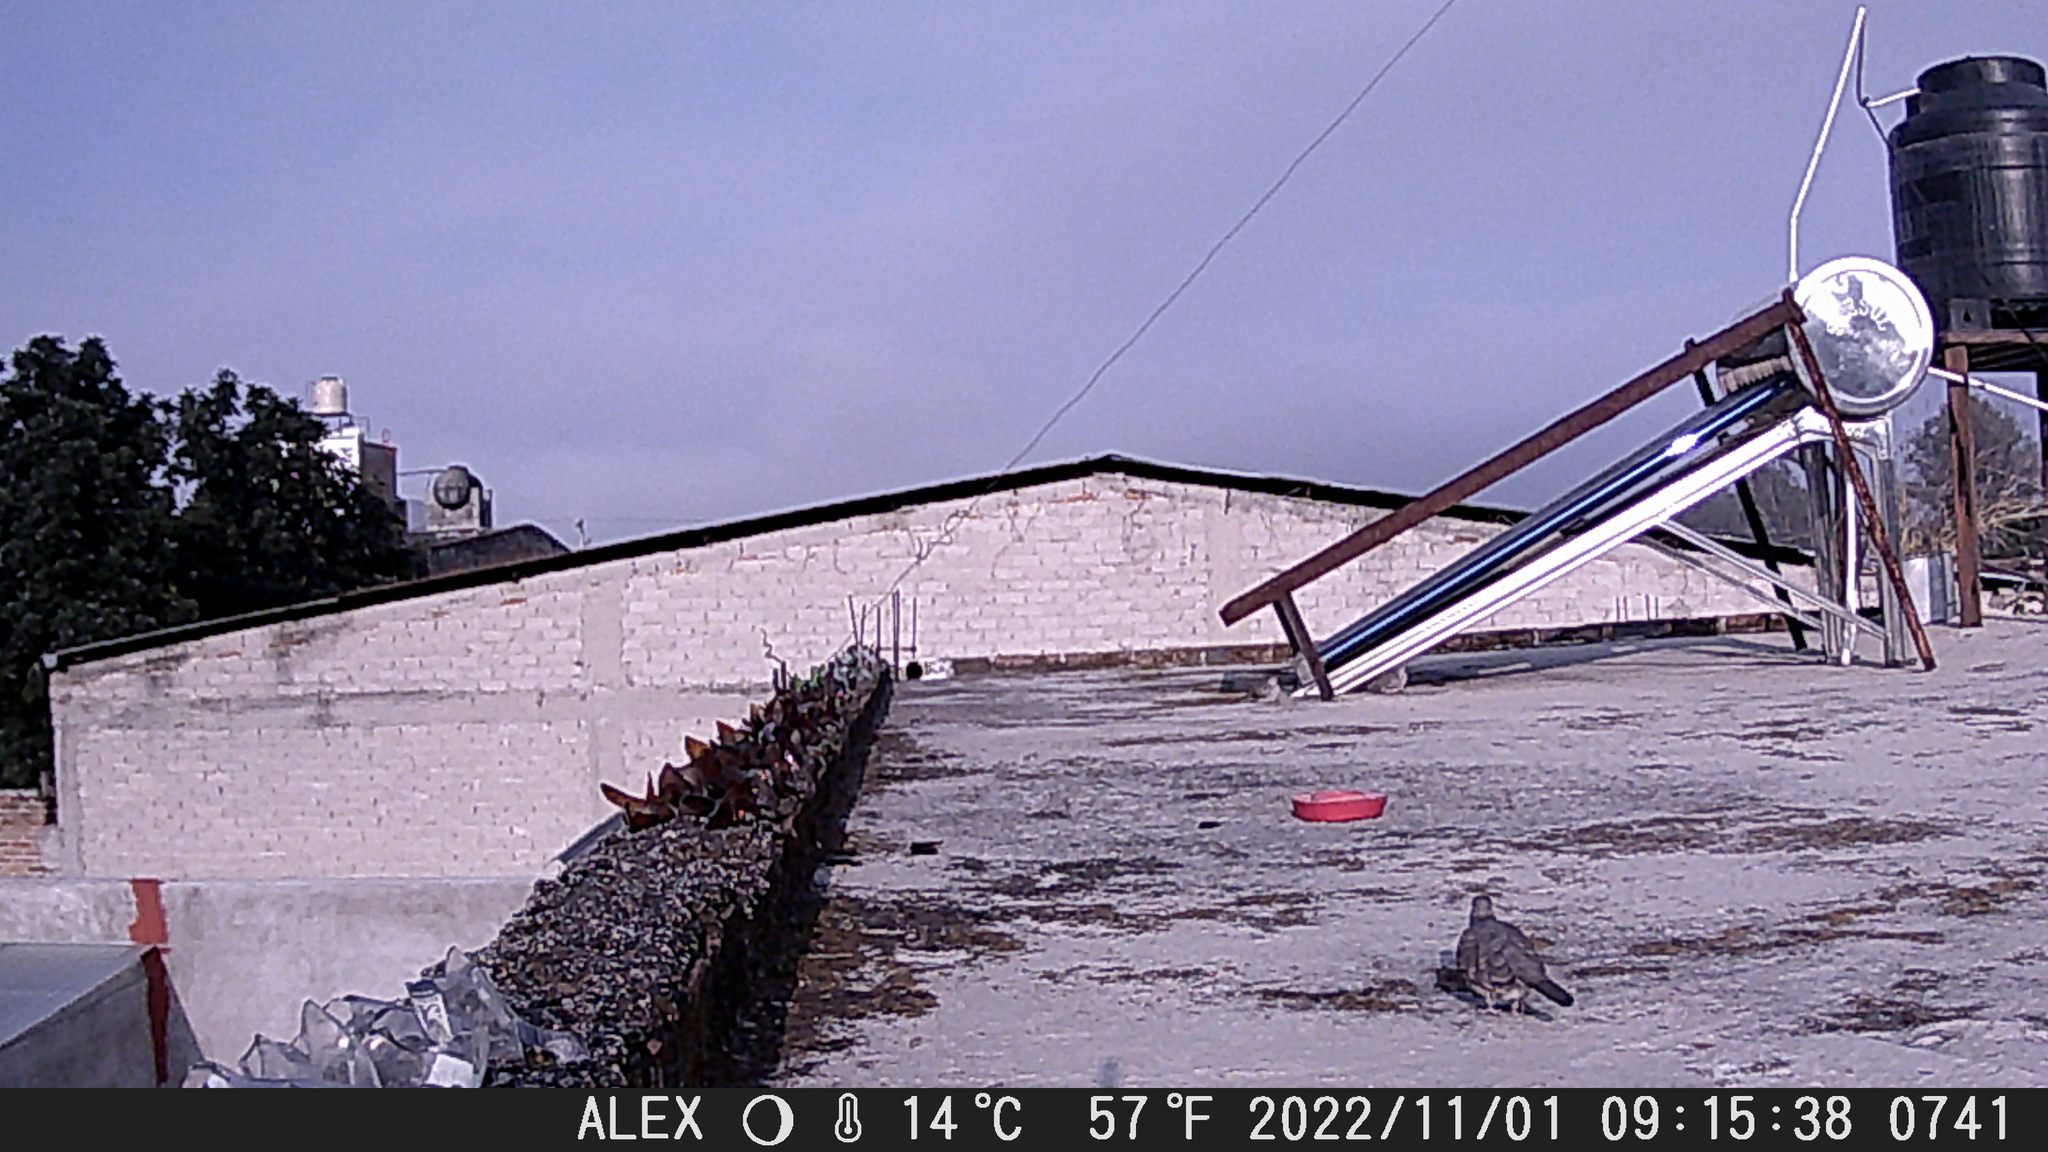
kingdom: Animalia
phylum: Chordata
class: Aves
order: Columbiformes
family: Columbidae
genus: Columbina
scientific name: Columbina inca
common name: Inca dove
